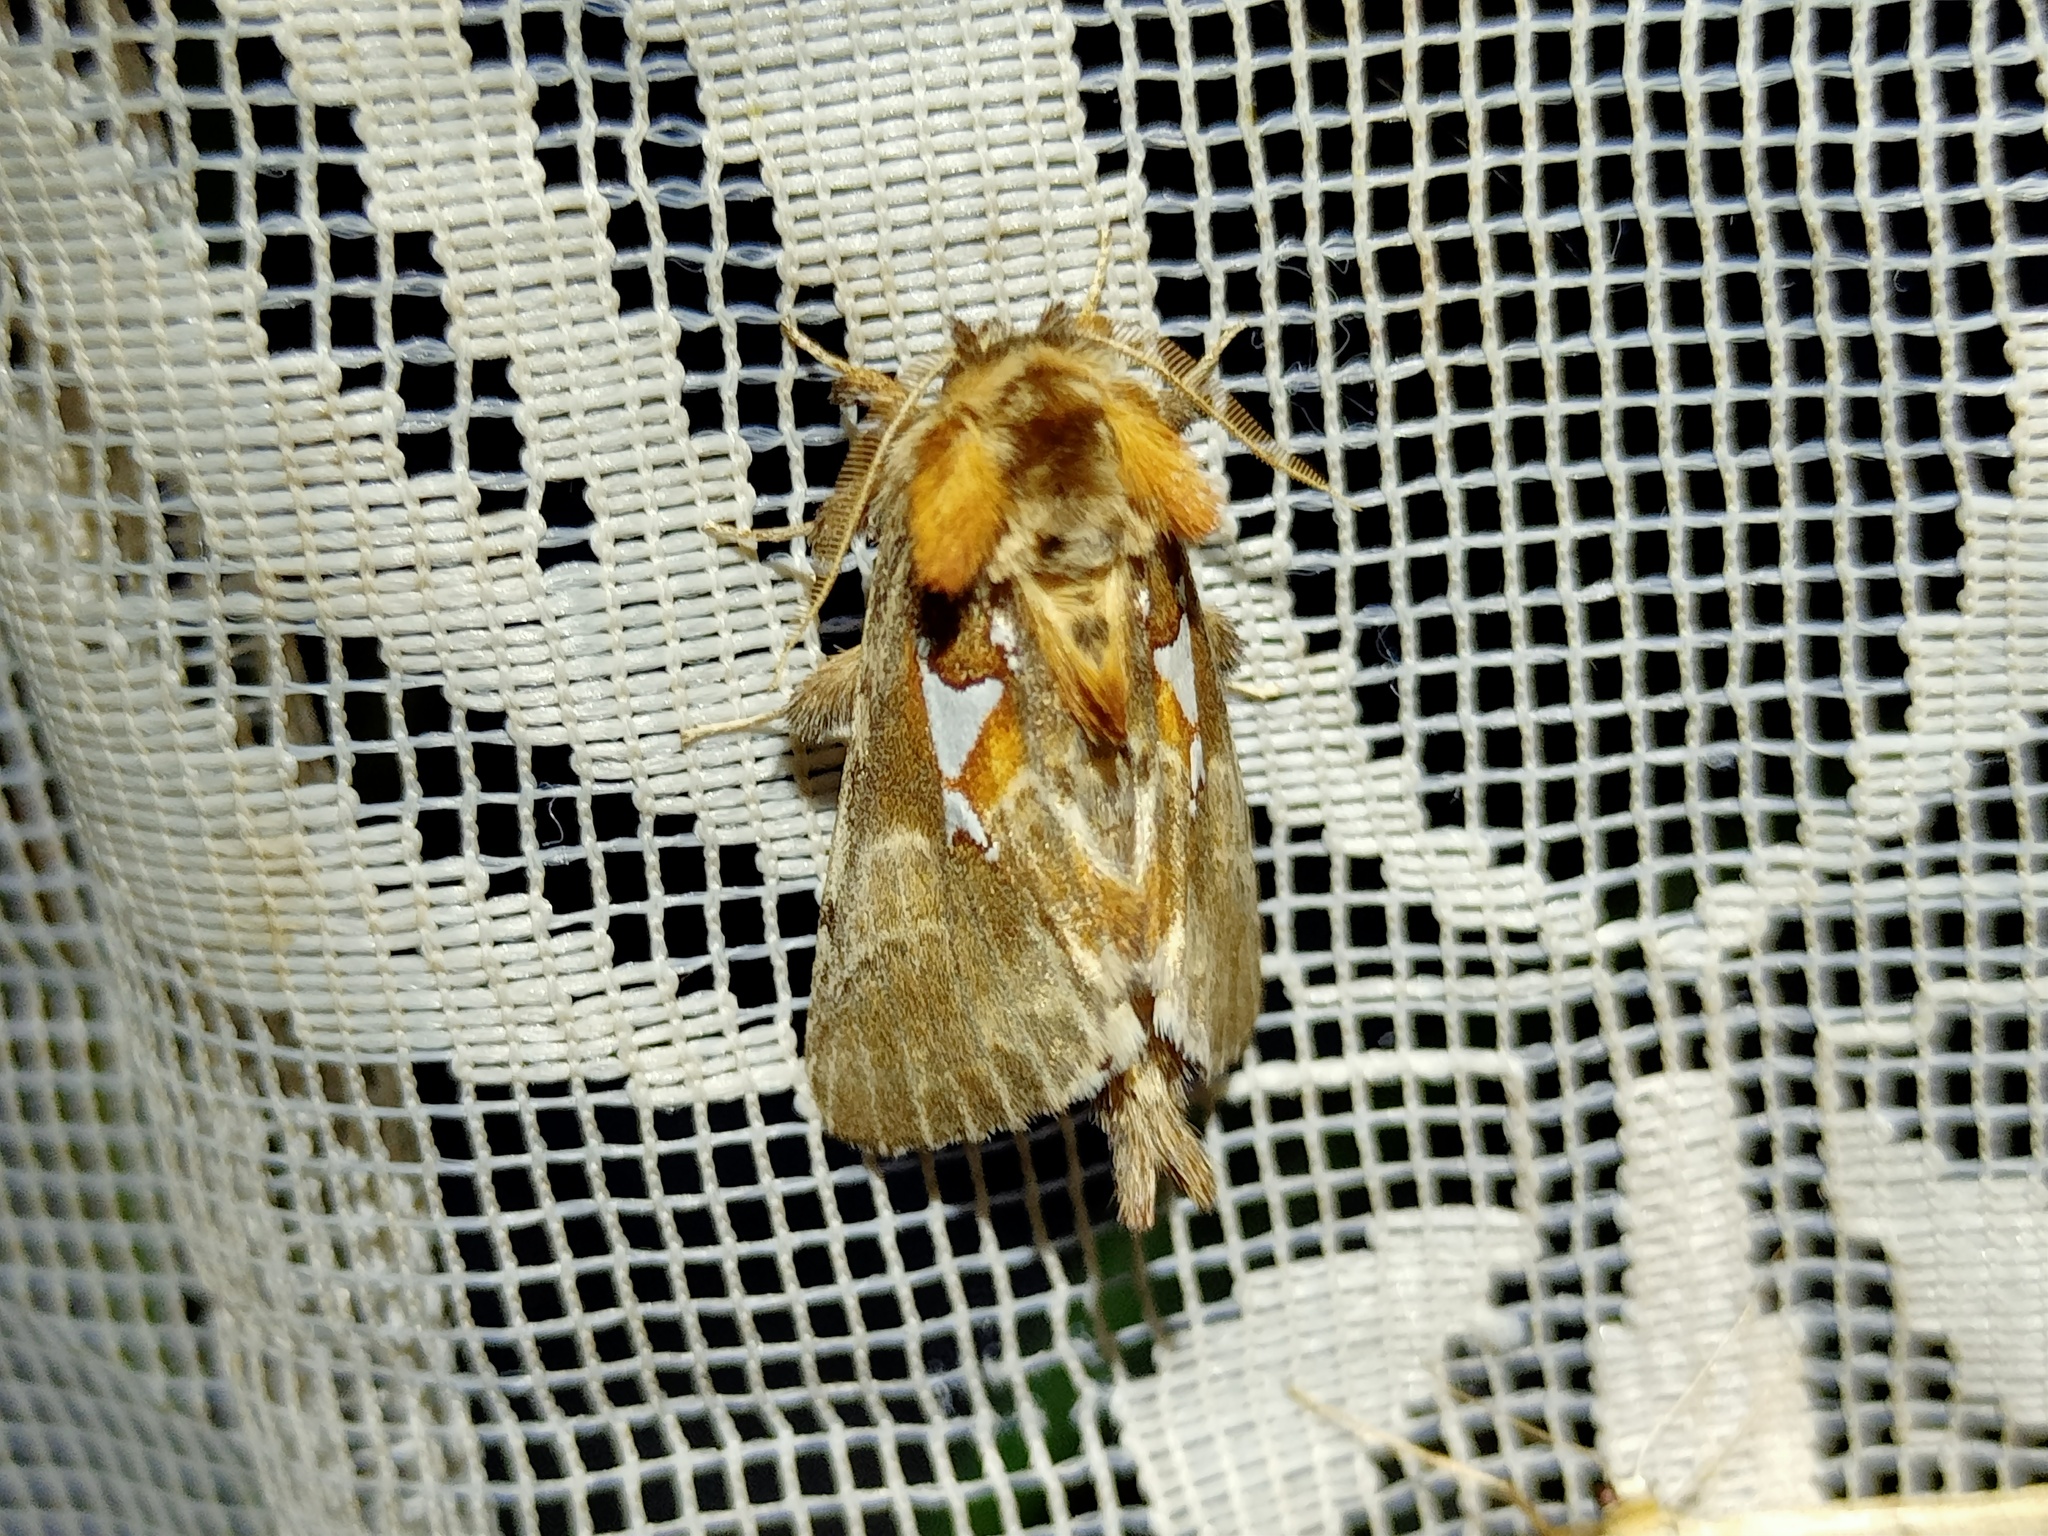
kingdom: Animalia
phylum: Arthropoda
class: Insecta
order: Lepidoptera
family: Notodontidae
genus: Spatalia
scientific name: Spatalia argentina
